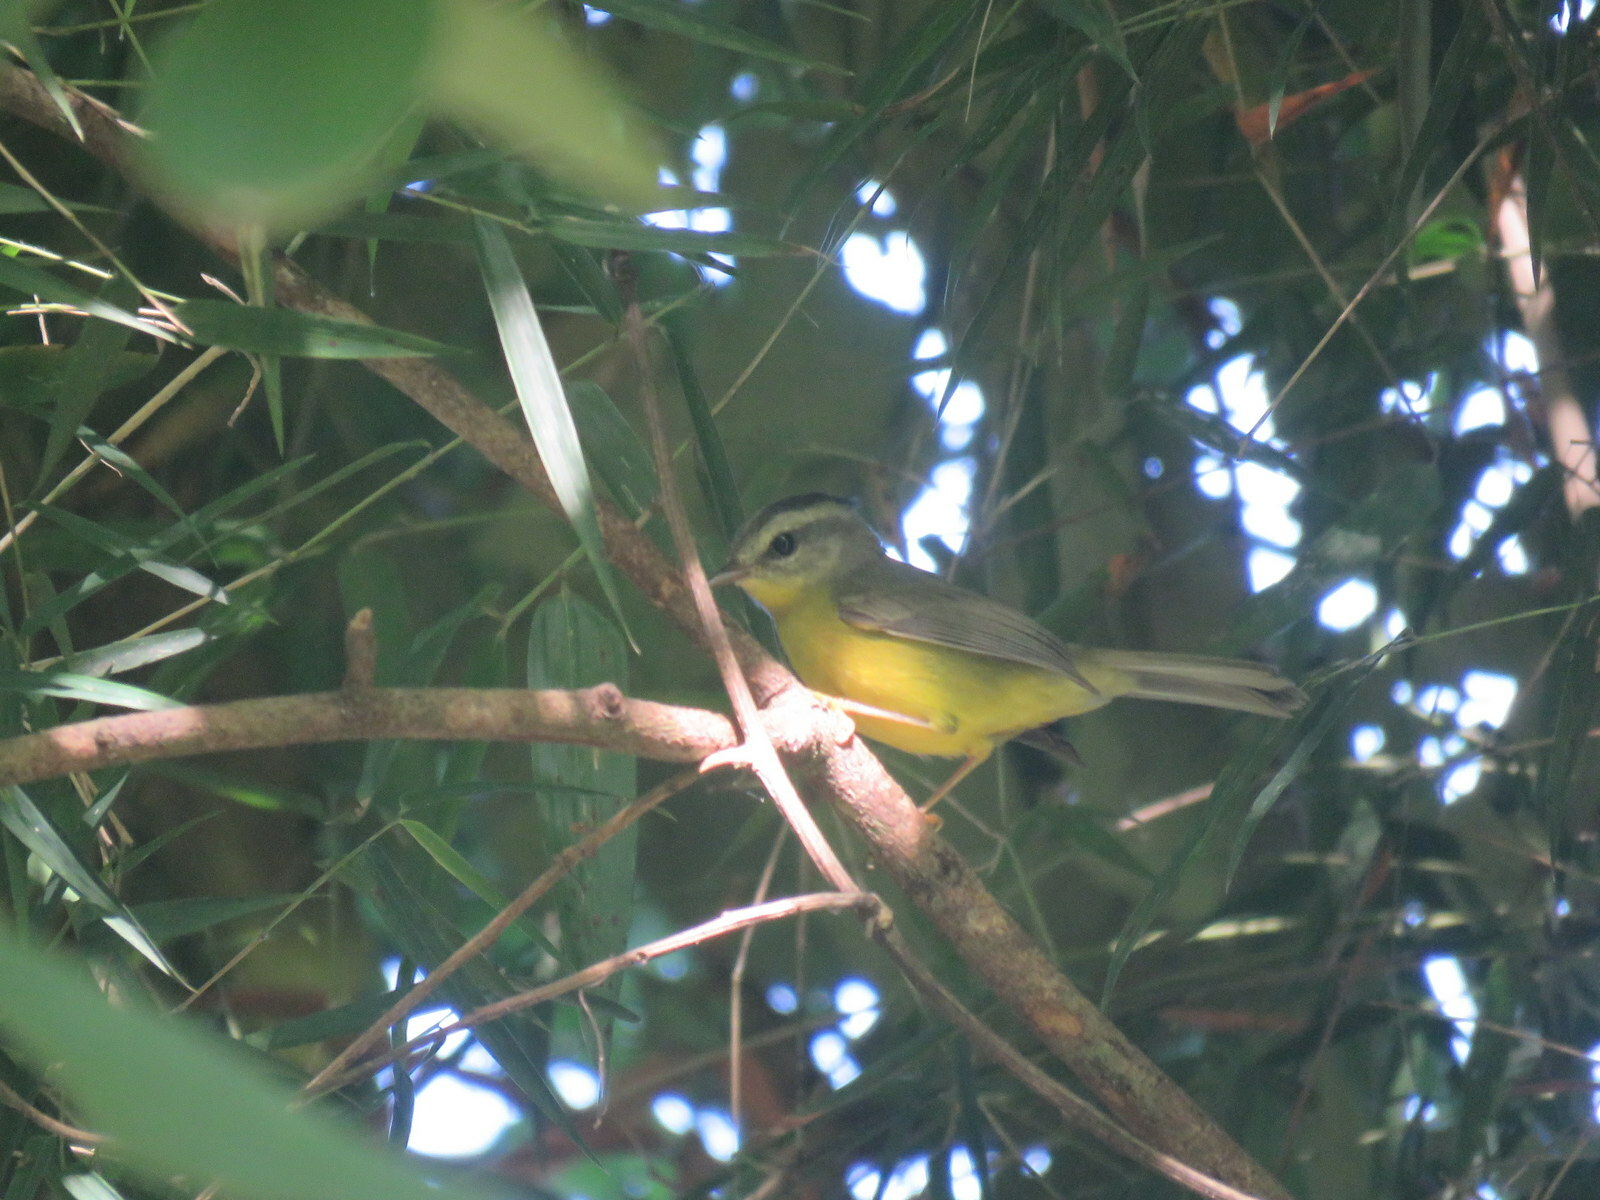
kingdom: Animalia
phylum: Chordata
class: Aves
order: Passeriformes
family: Parulidae
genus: Basileuterus
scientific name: Basileuterus culicivorus
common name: Golden-crowned warbler
